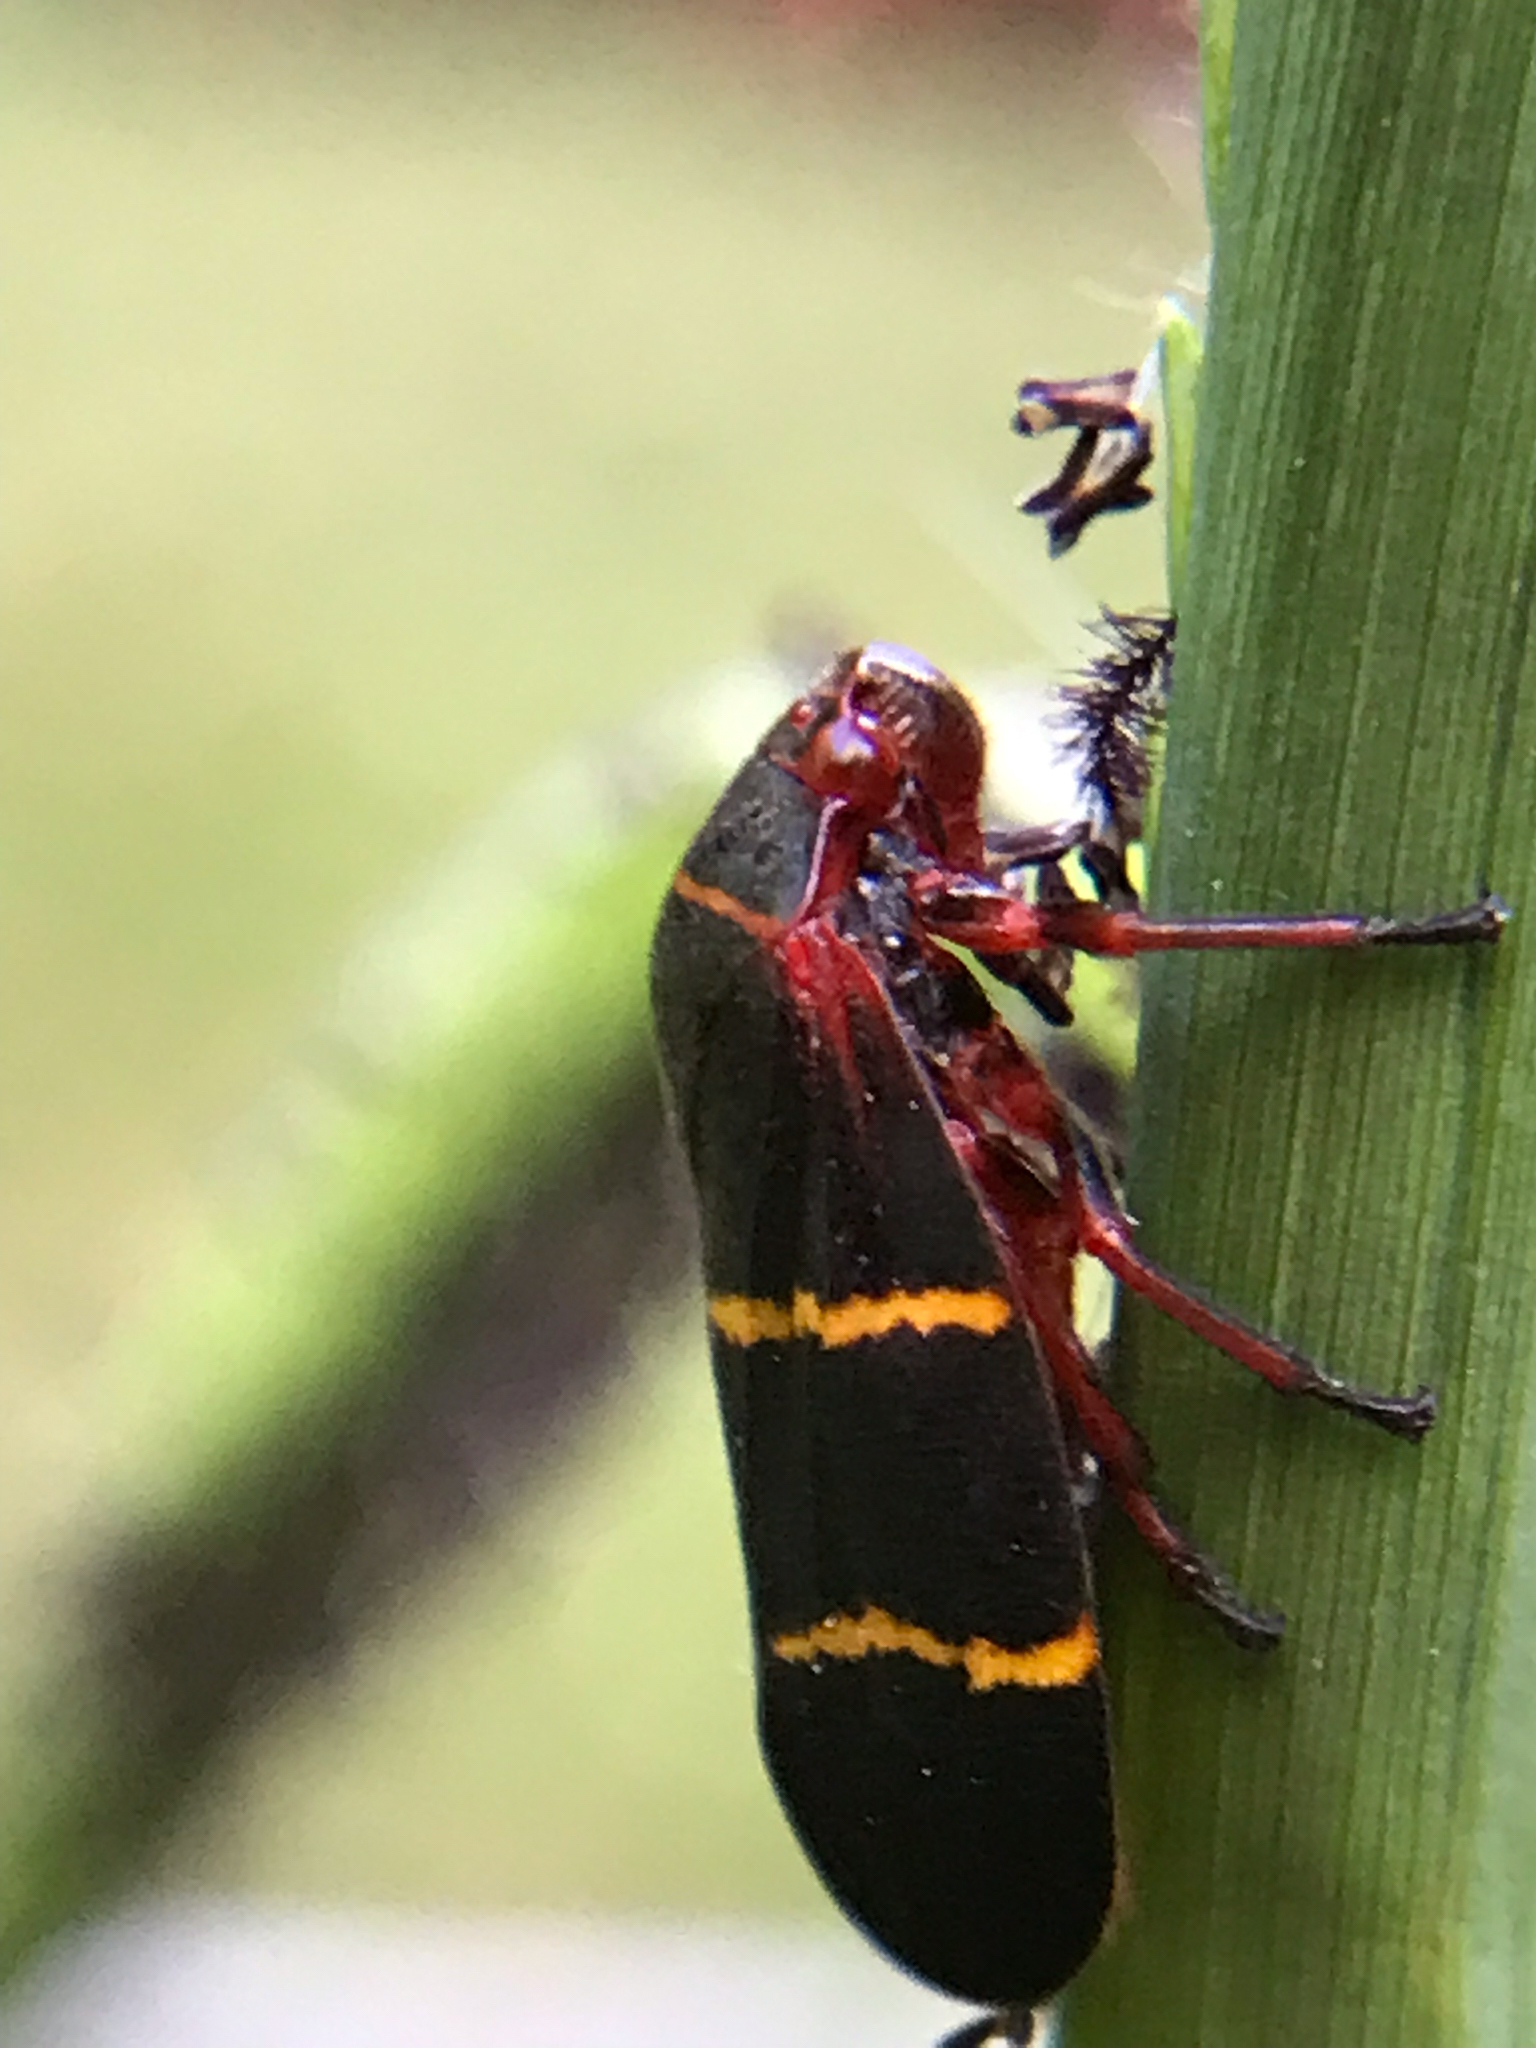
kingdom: Animalia
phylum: Arthropoda
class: Insecta
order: Hemiptera
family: Cercopidae
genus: Prosapia
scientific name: Prosapia bicincta
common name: Twolined spittlebug
